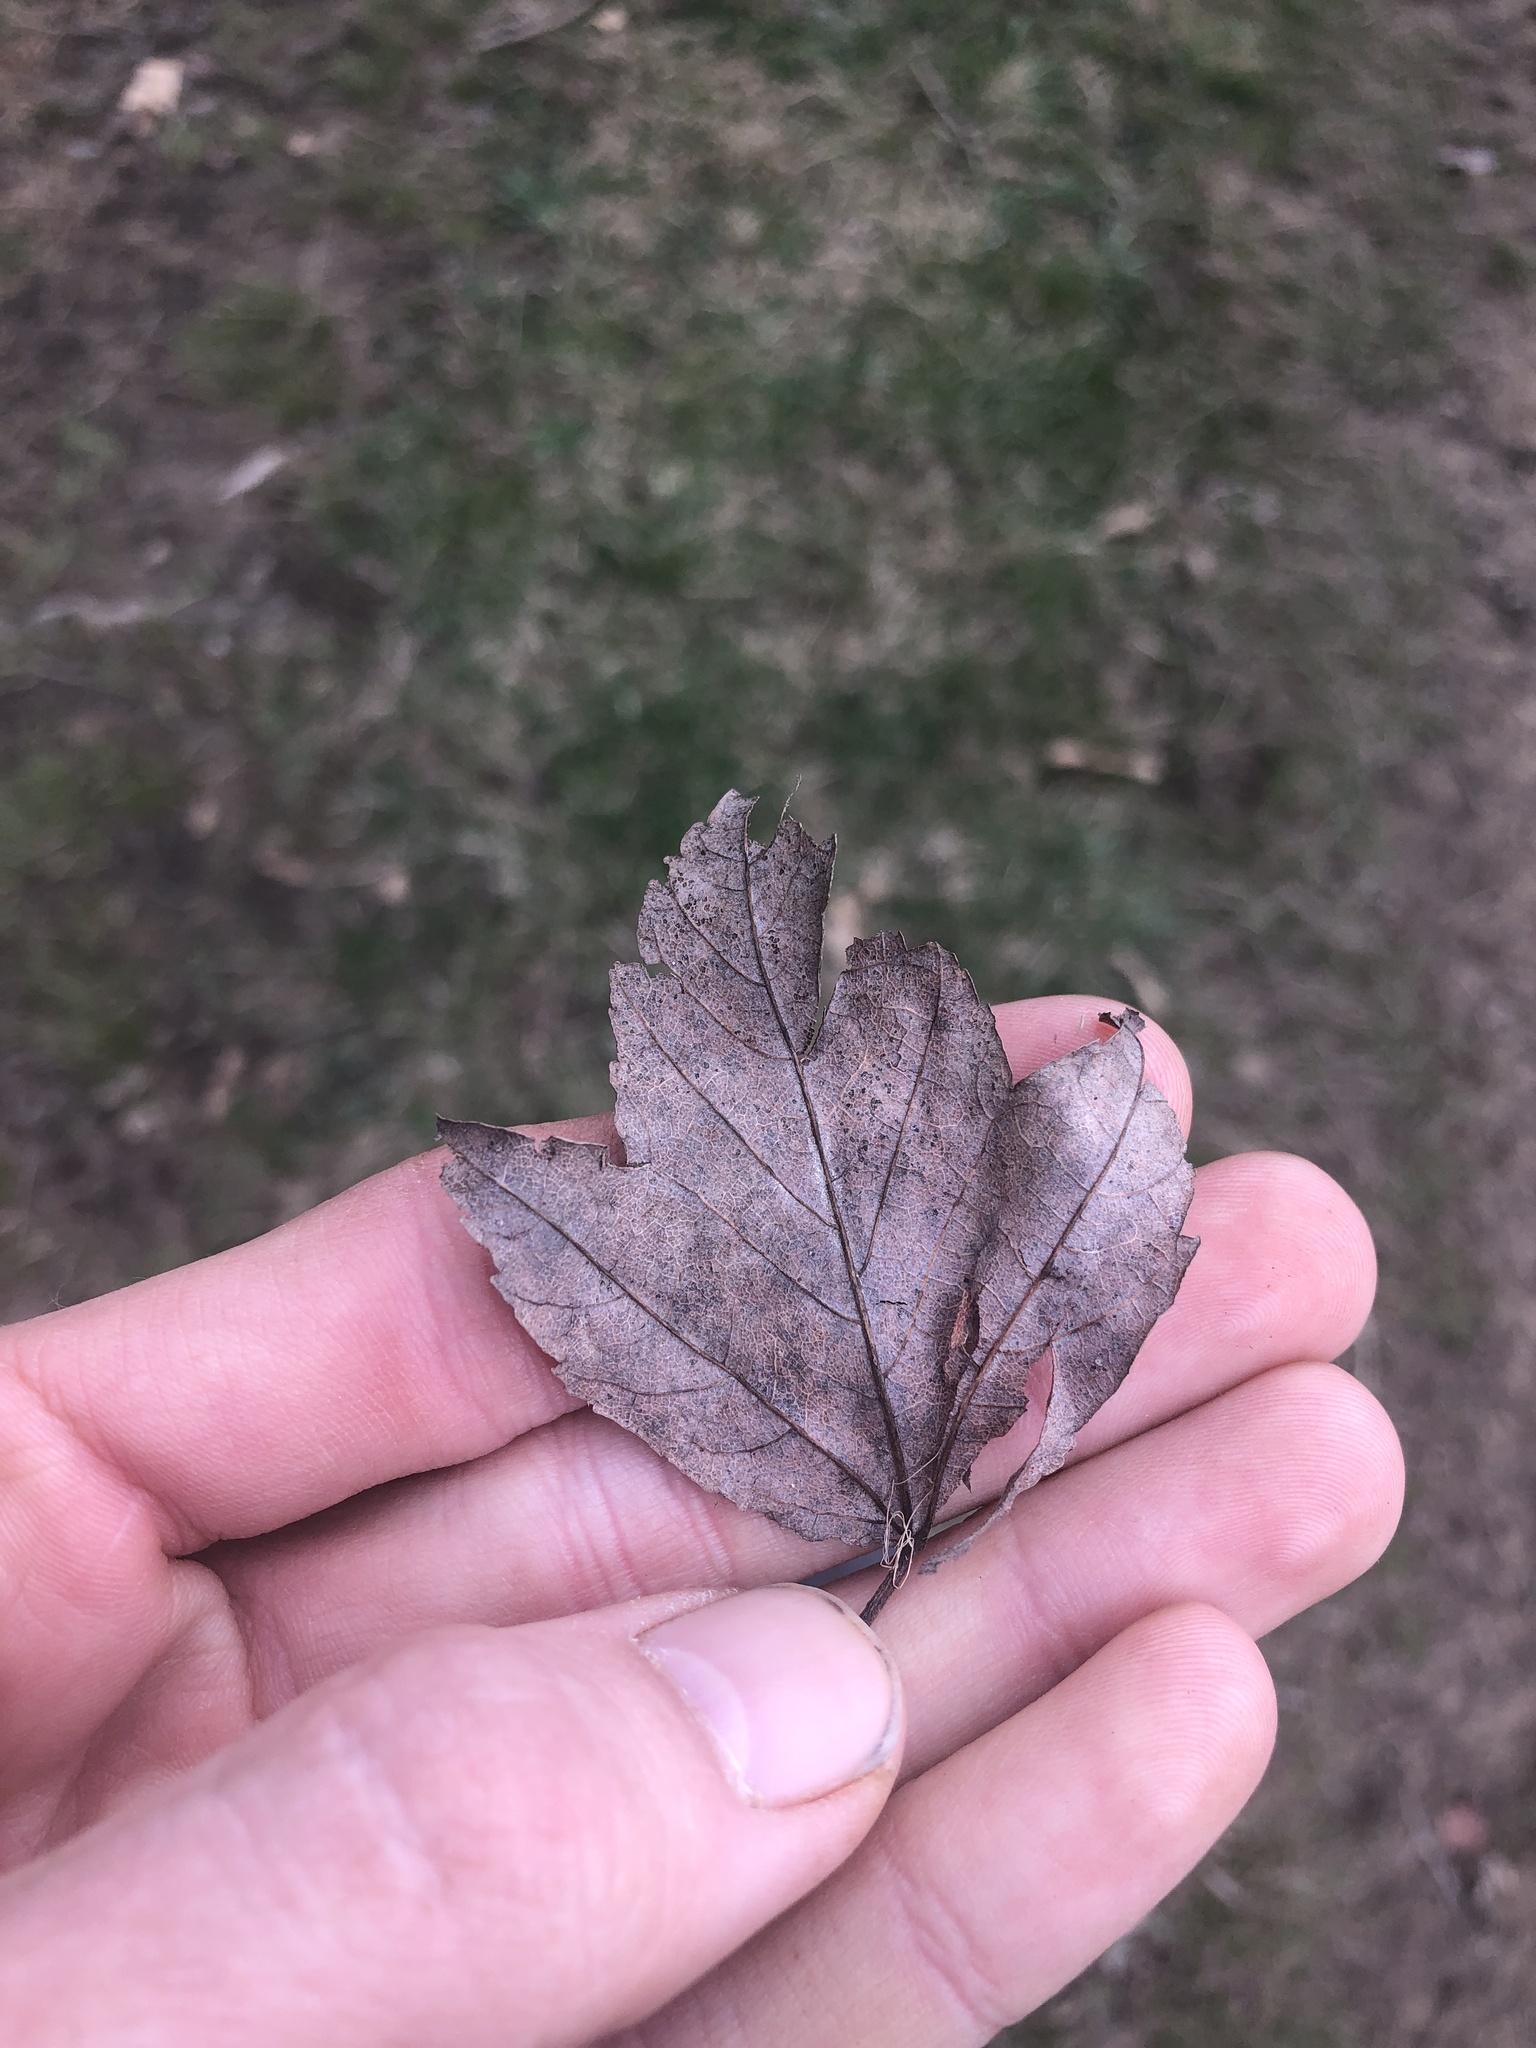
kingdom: Plantae
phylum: Tracheophyta
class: Magnoliopsida
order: Sapindales
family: Sapindaceae
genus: Acer
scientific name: Acer rubrum
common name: Red maple
